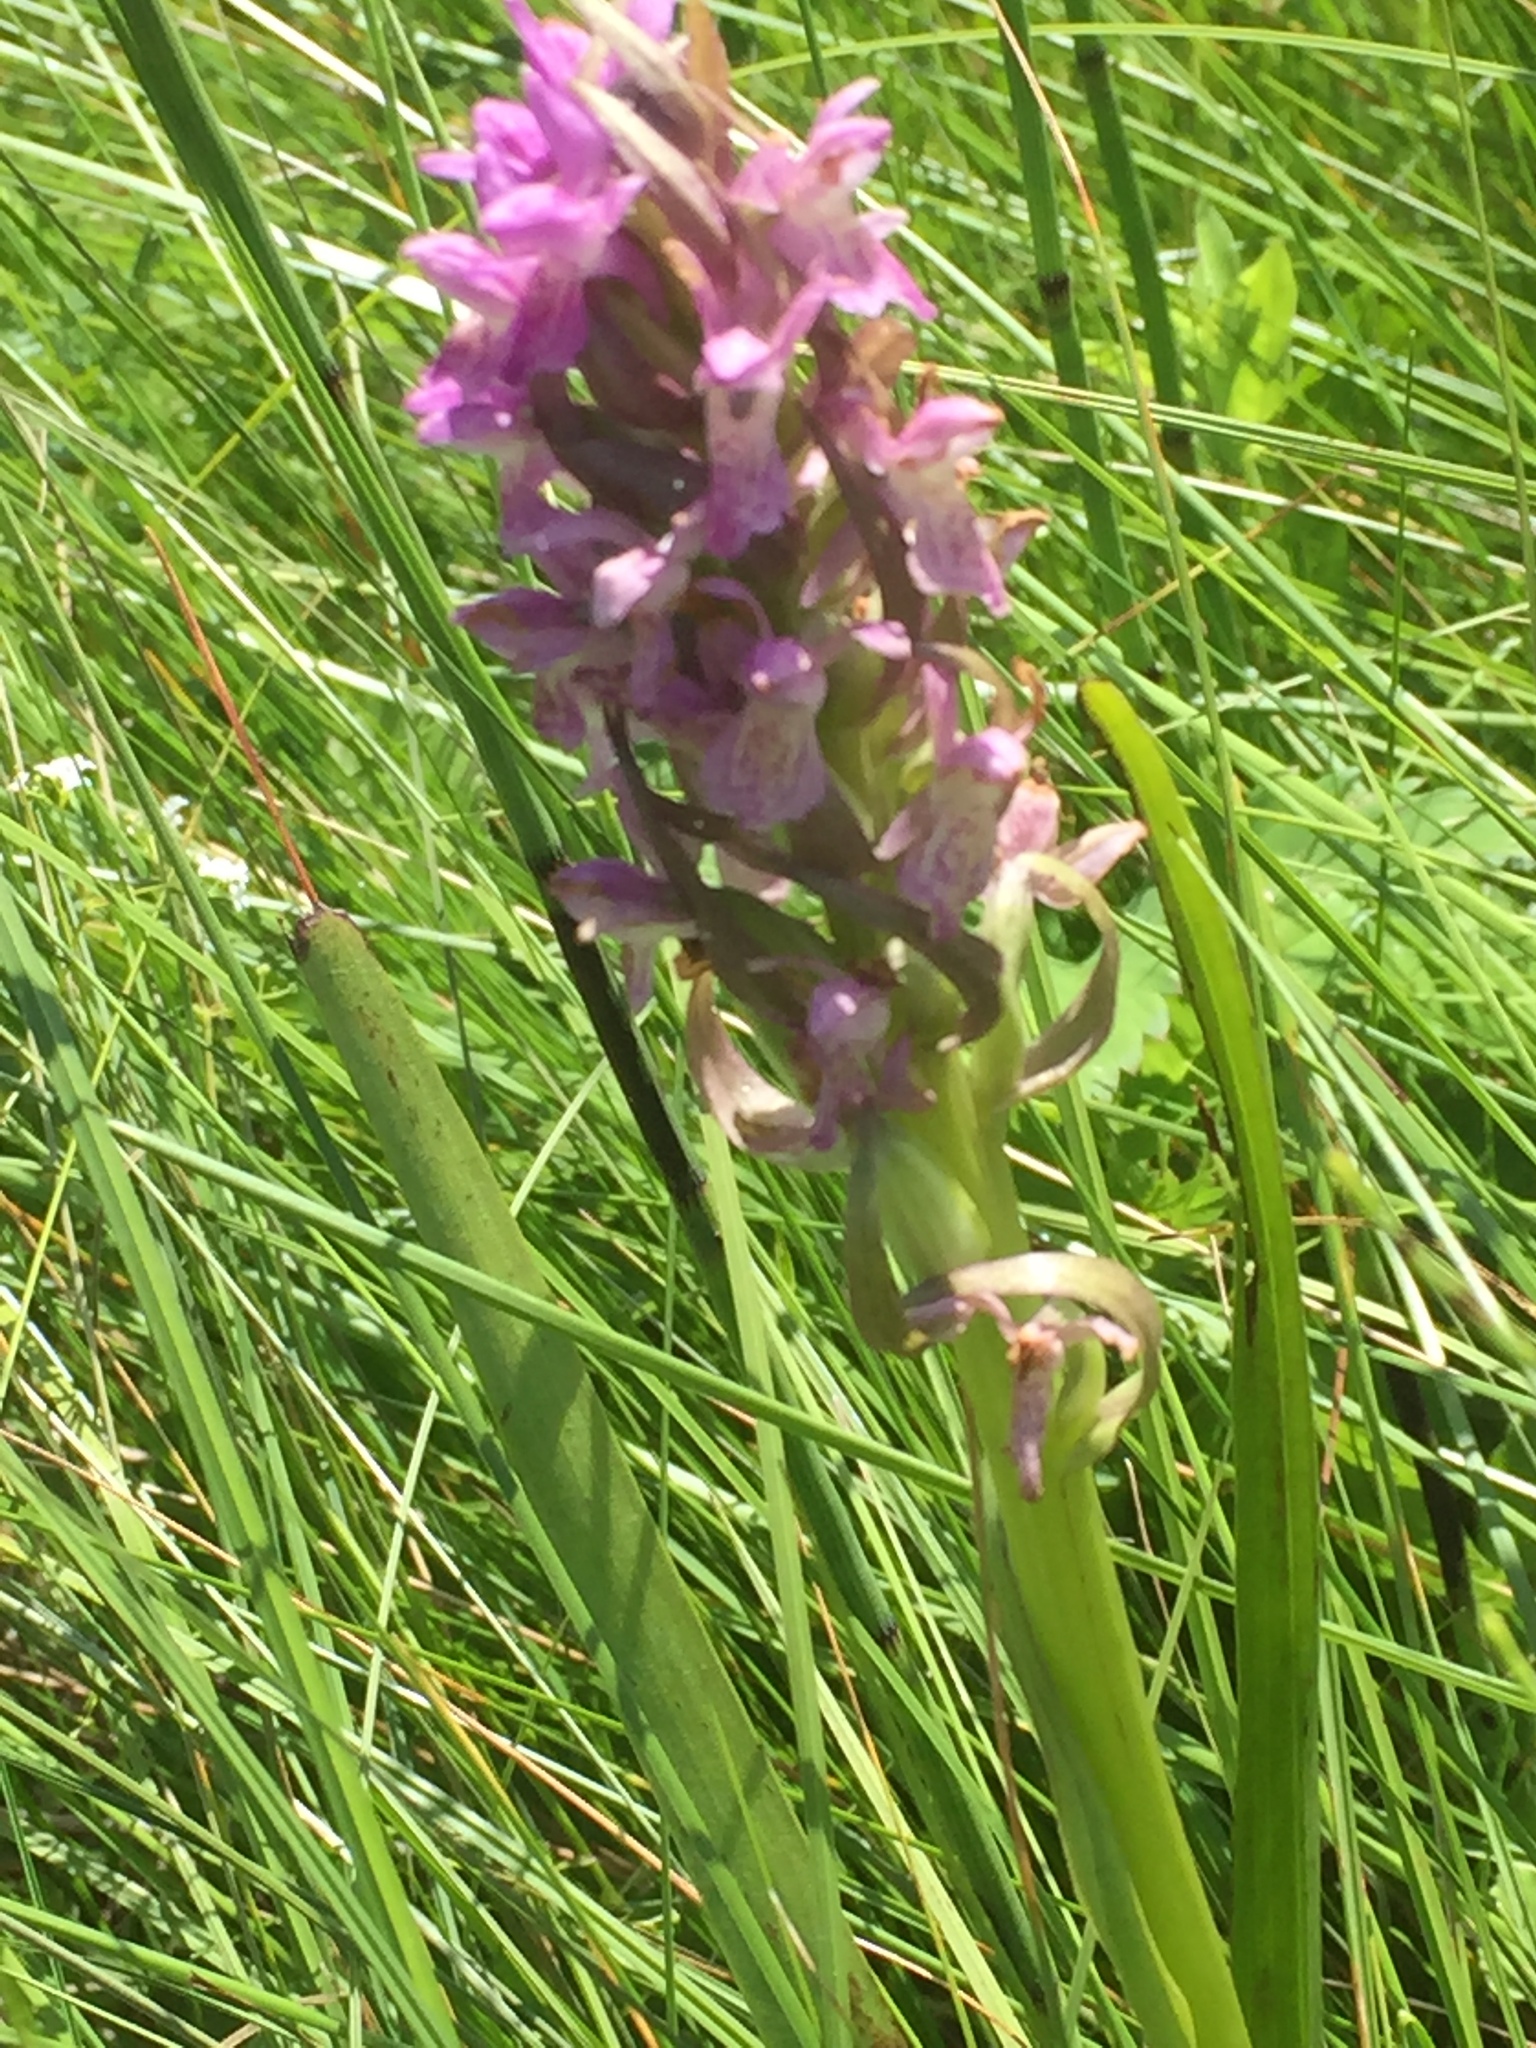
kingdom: Plantae
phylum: Tracheophyta
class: Liliopsida
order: Asparagales
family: Orchidaceae
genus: Dactylorhiza
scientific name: Dactylorhiza incarnata
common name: Early marsh-orchid
